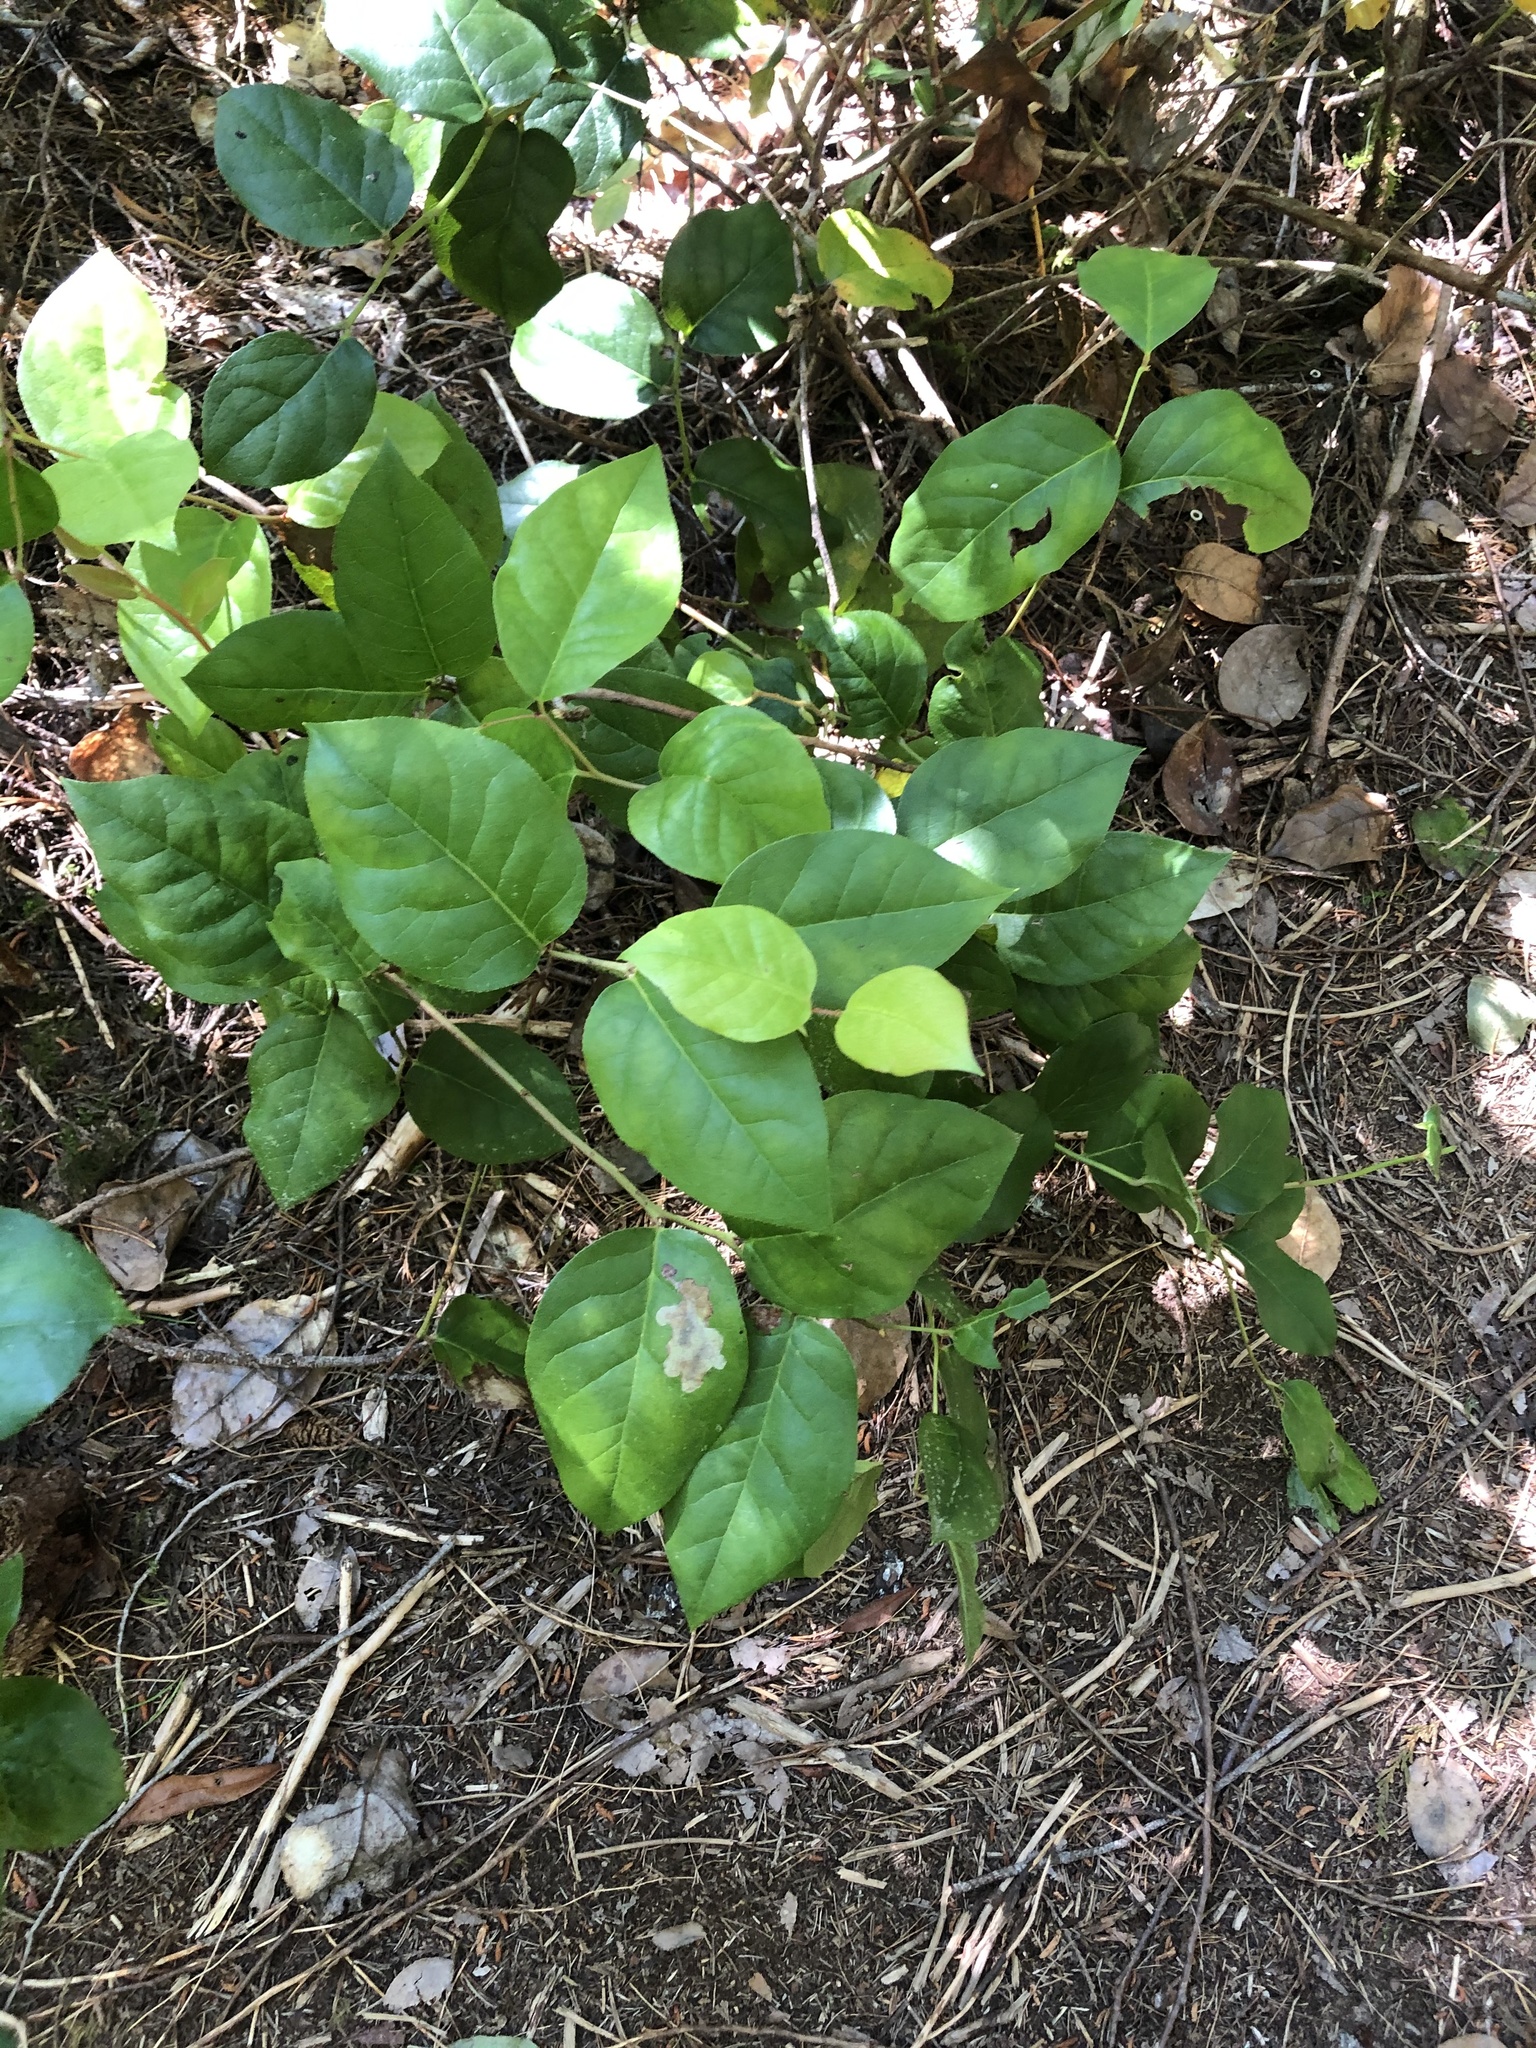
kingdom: Plantae
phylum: Tracheophyta
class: Magnoliopsida
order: Ericales
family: Ericaceae
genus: Gaultheria
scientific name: Gaultheria shallon
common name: Shallon
